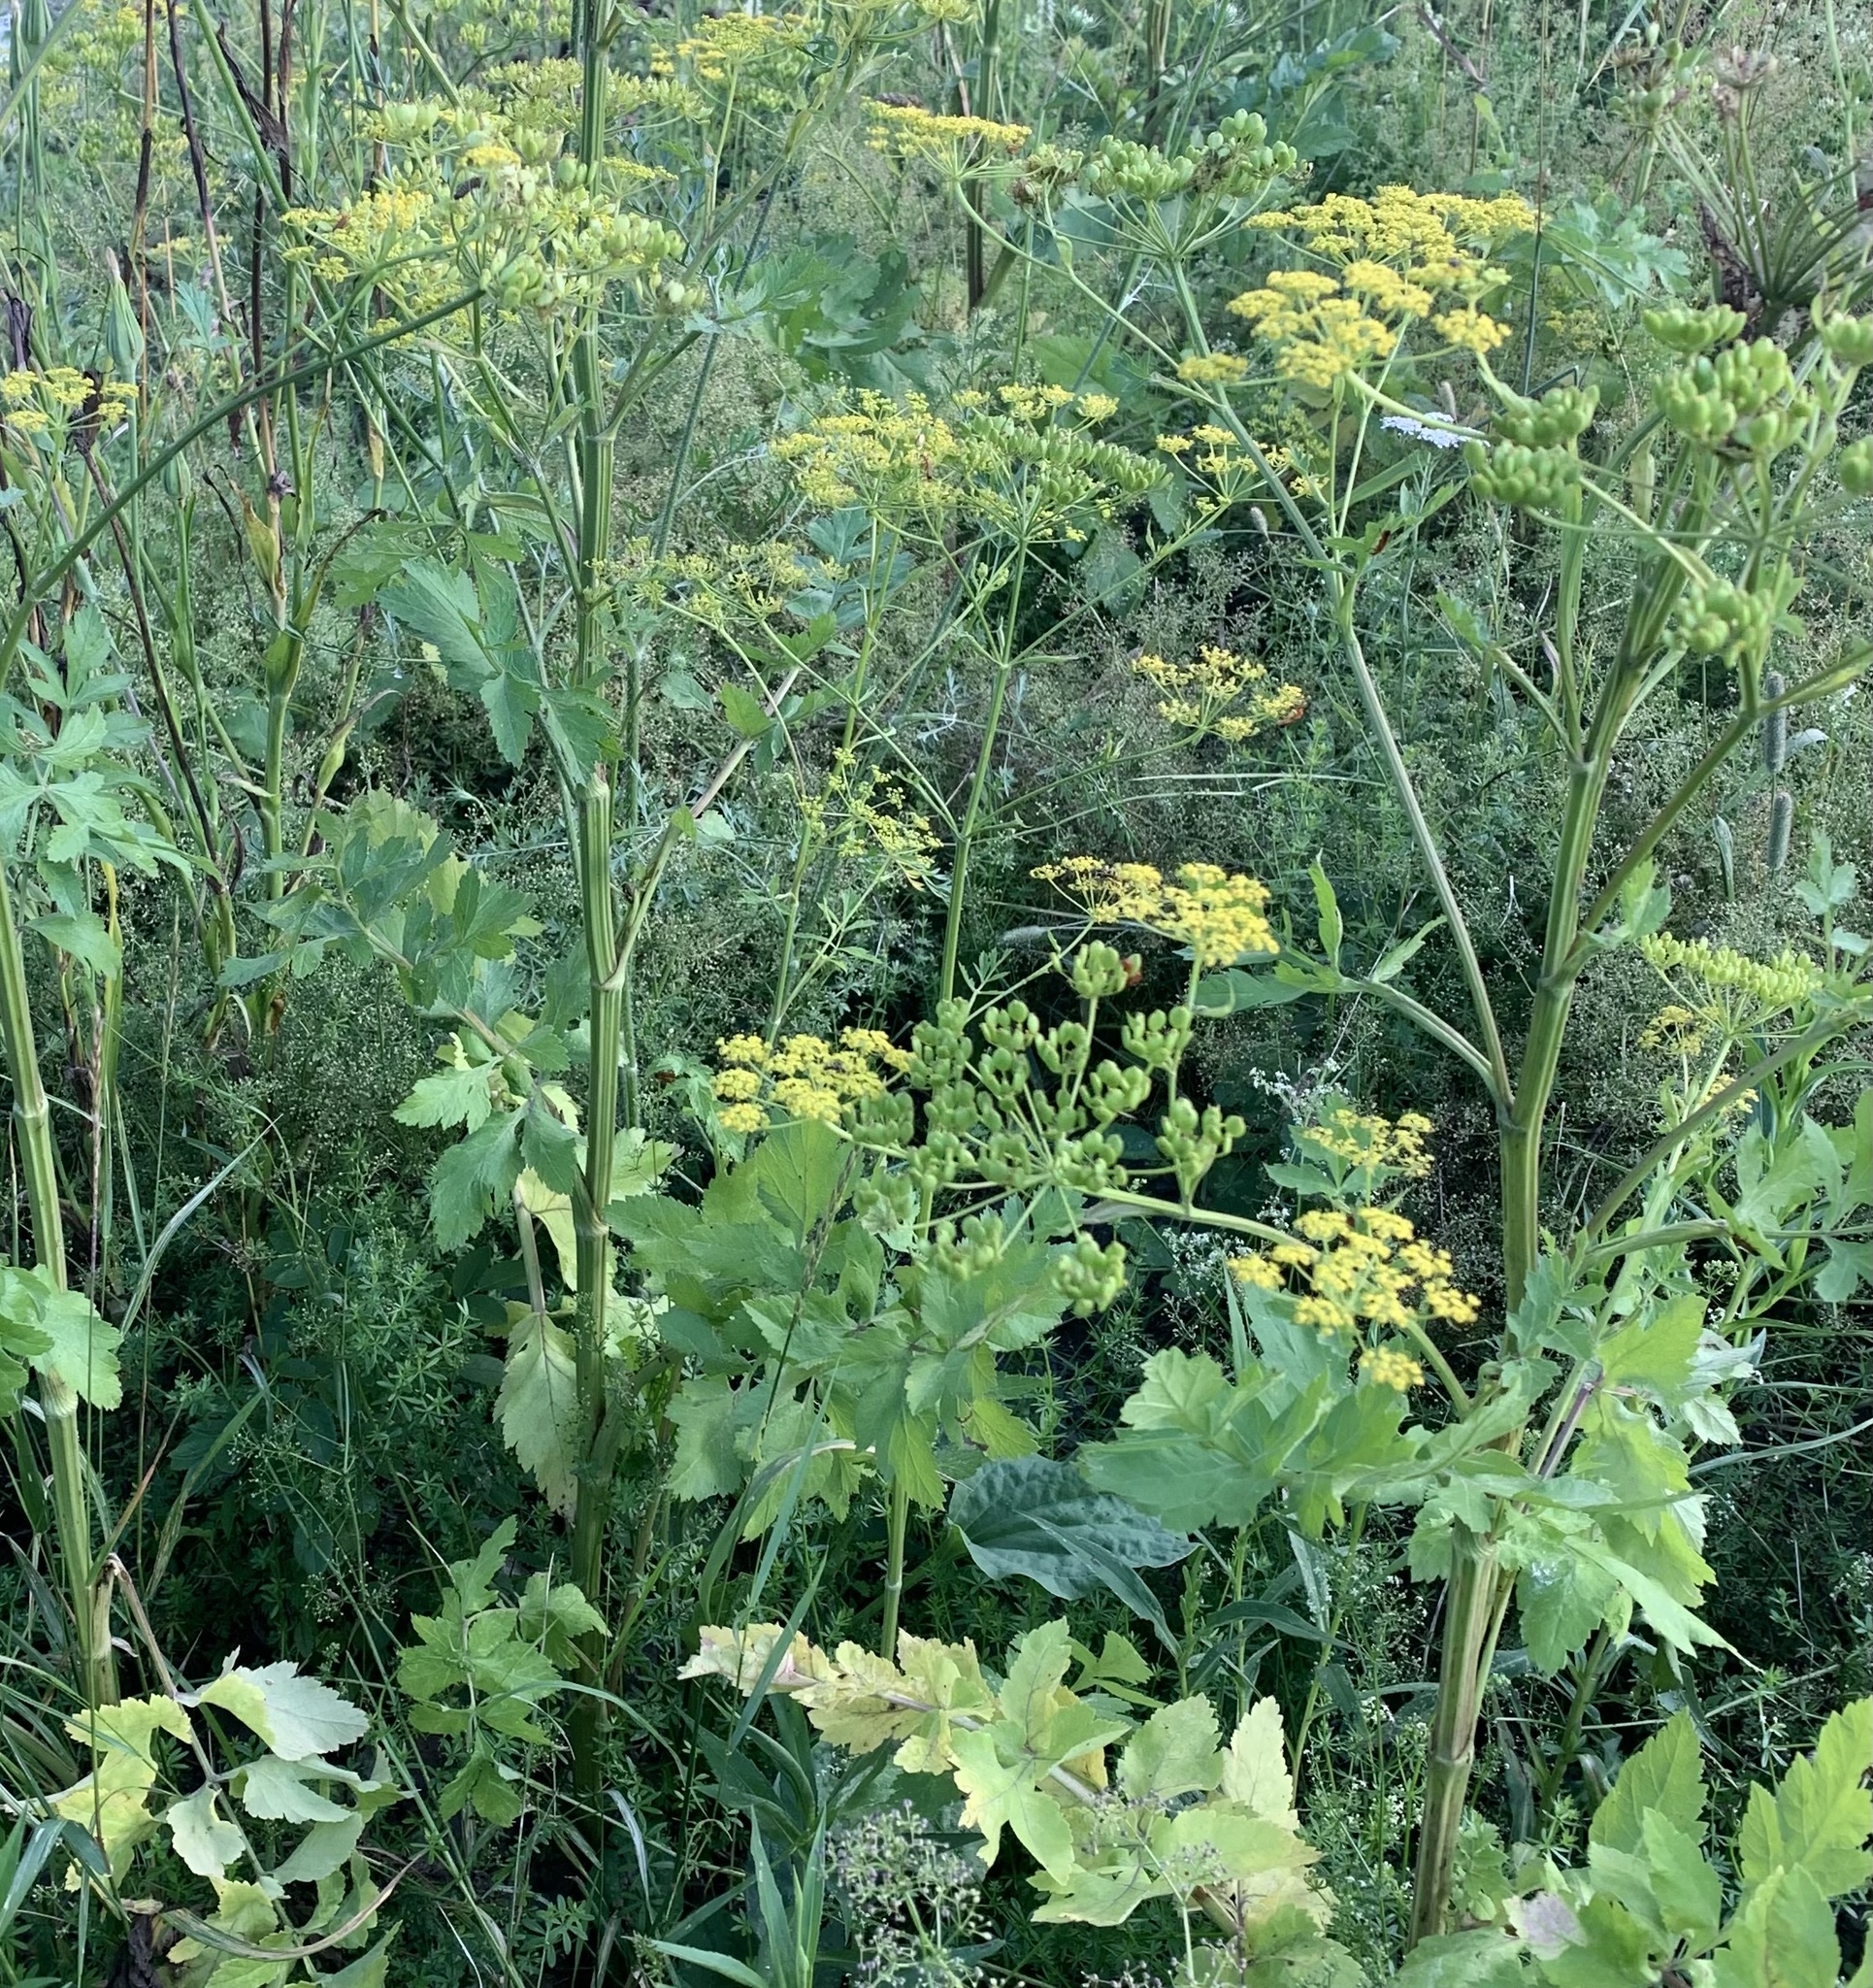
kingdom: Plantae
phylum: Tracheophyta
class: Magnoliopsida
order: Apiales
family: Apiaceae
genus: Pastinaca
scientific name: Pastinaca sativa
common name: Wild parsnip
